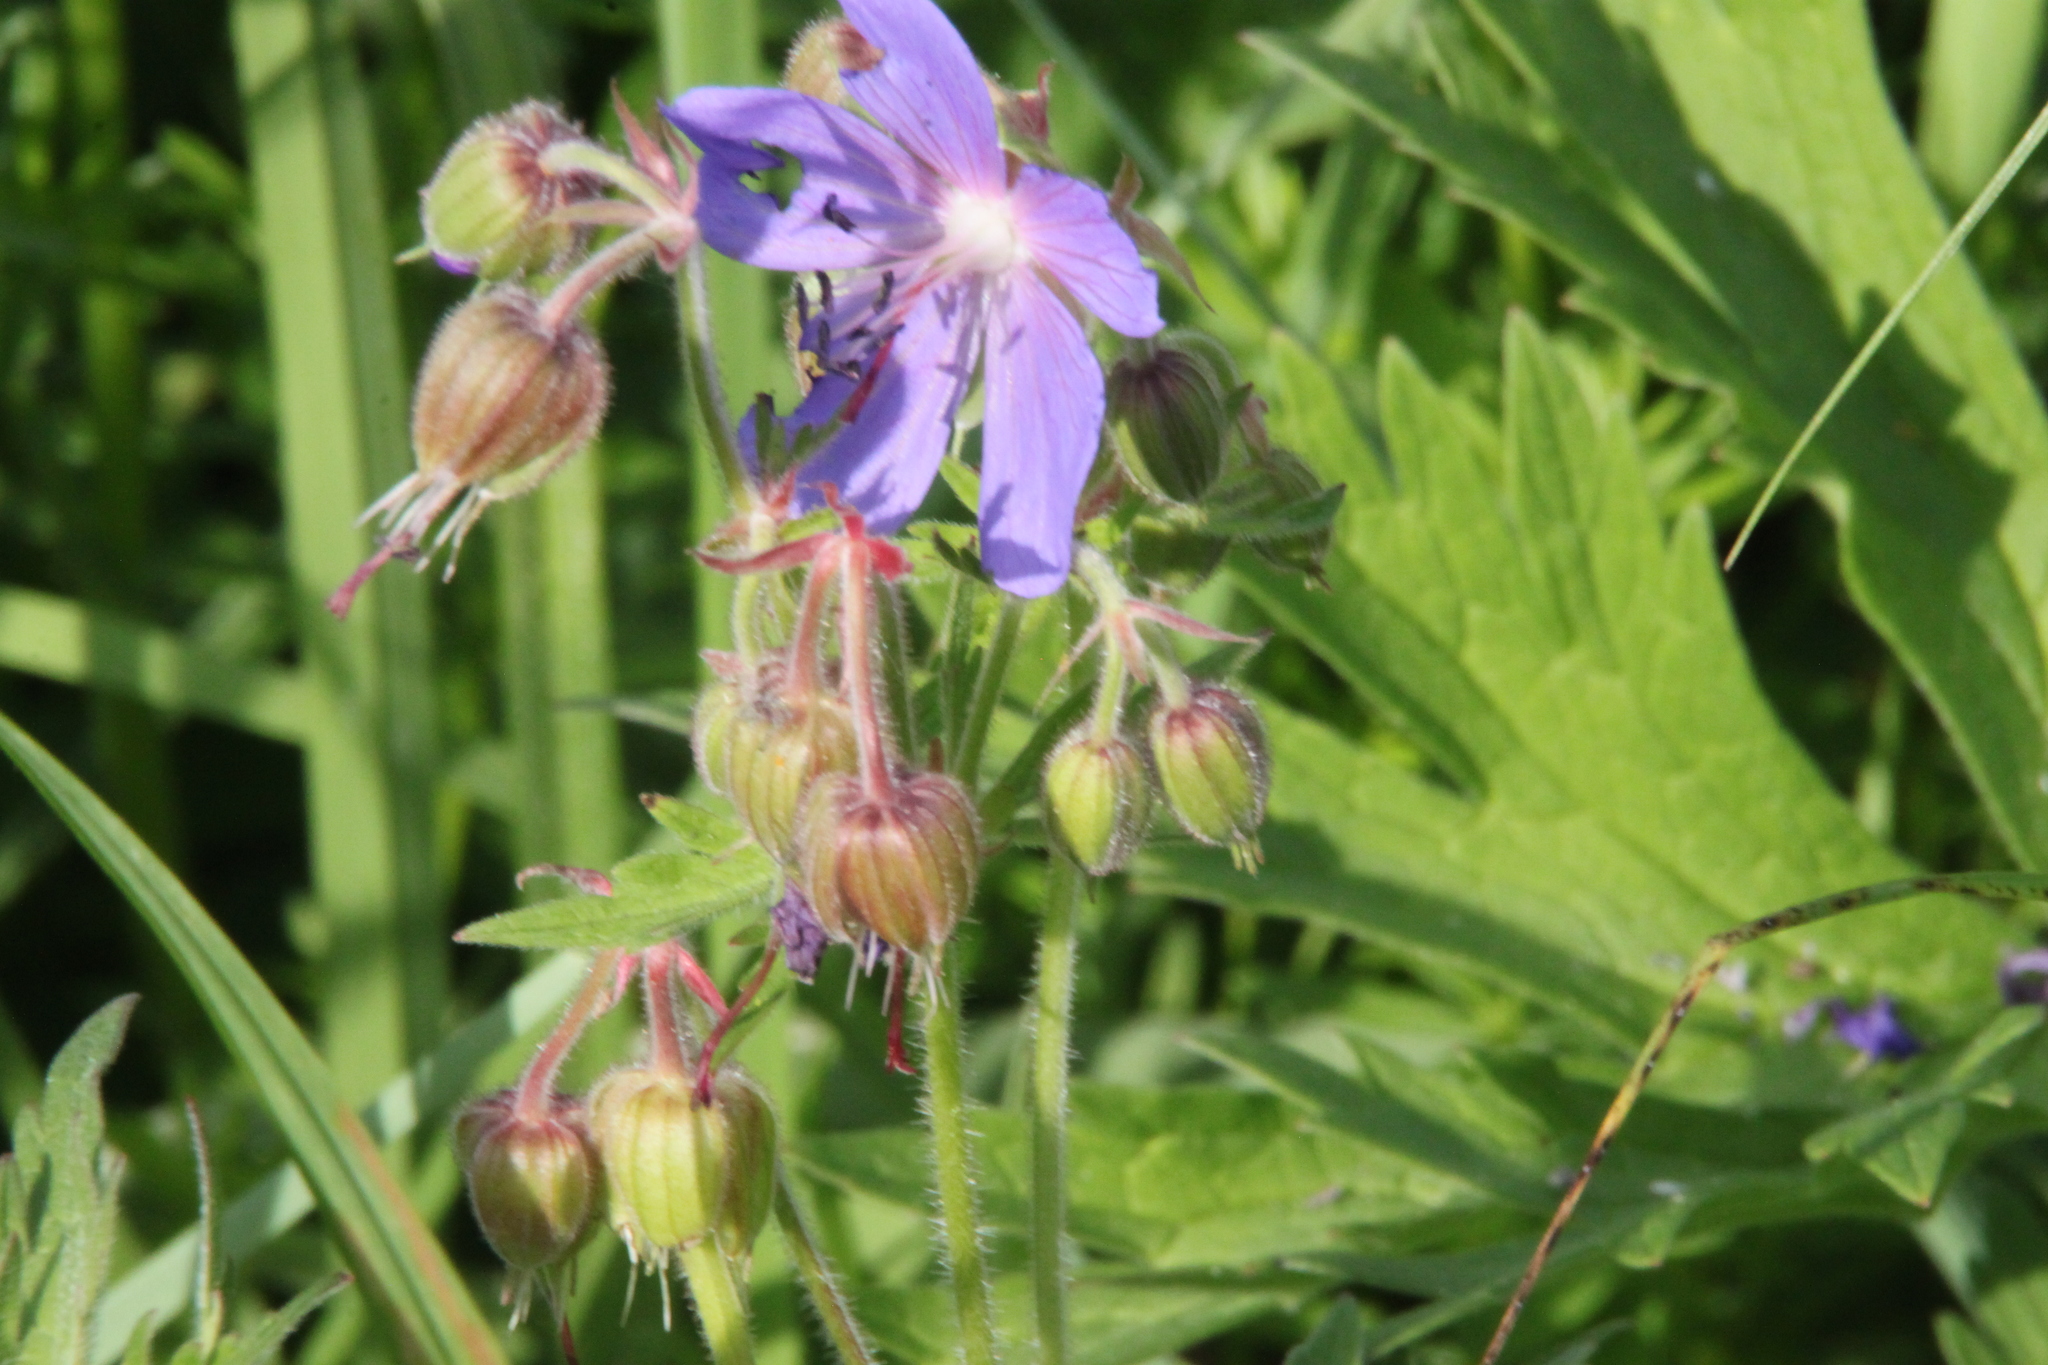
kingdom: Plantae
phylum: Tracheophyta
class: Magnoliopsida
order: Geraniales
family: Geraniaceae
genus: Geranium
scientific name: Geranium pratense
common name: Meadow crane's-bill
